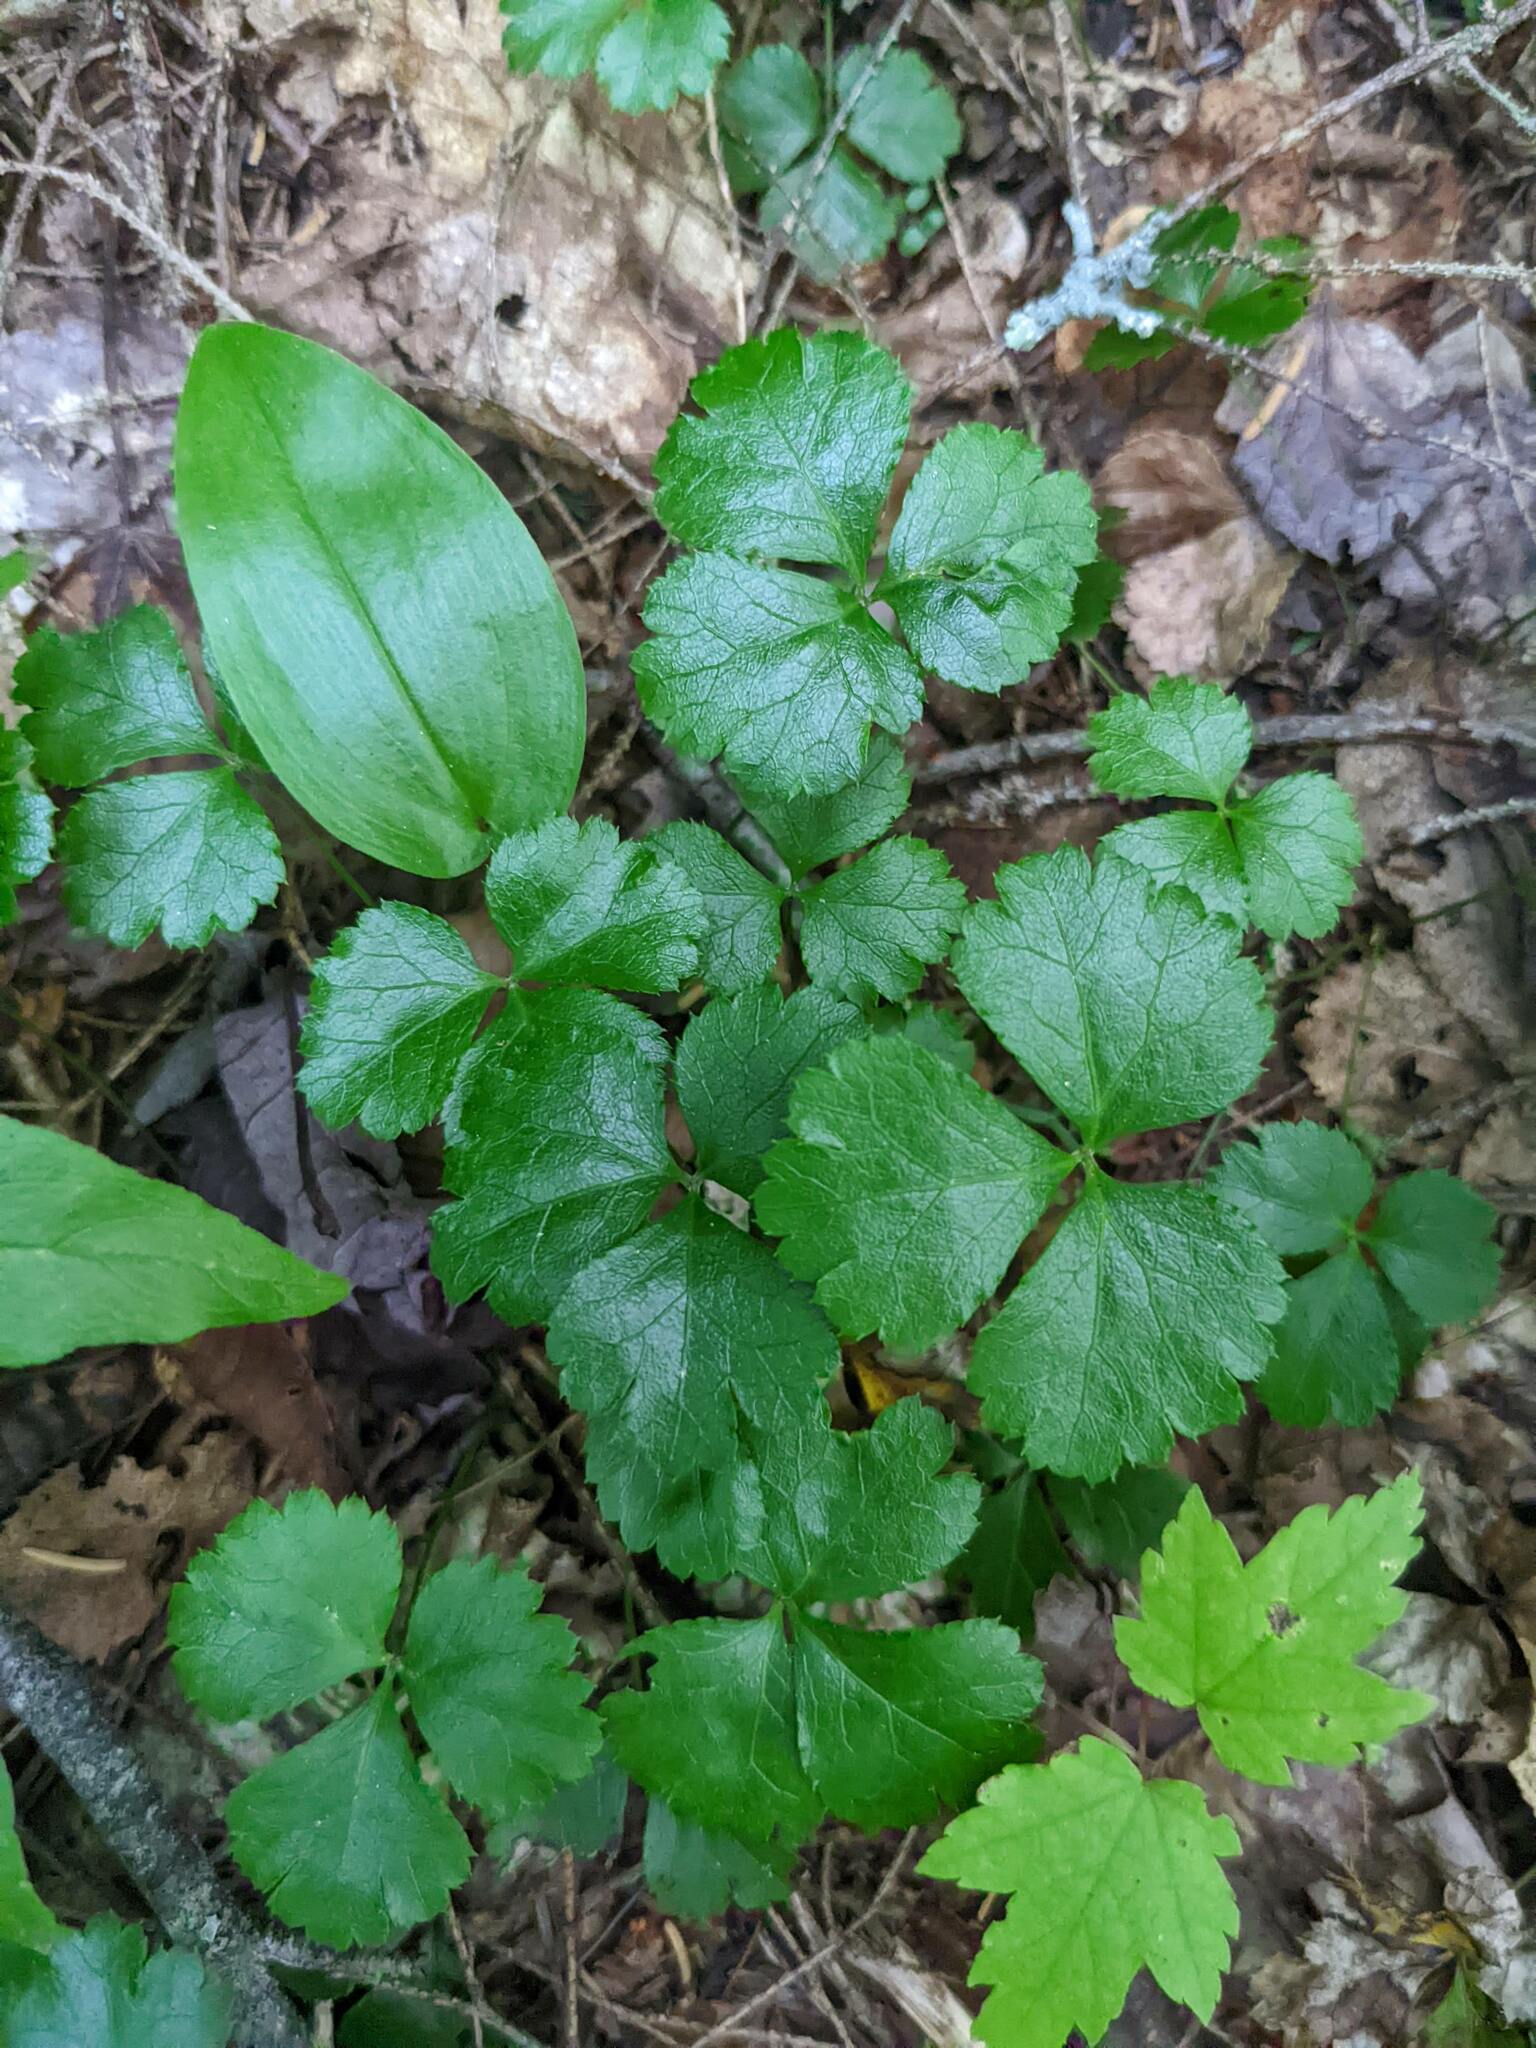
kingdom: Plantae
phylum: Tracheophyta
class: Magnoliopsida
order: Ranunculales
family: Ranunculaceae
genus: Coptis
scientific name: Coptis trifolia
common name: Canker-root
